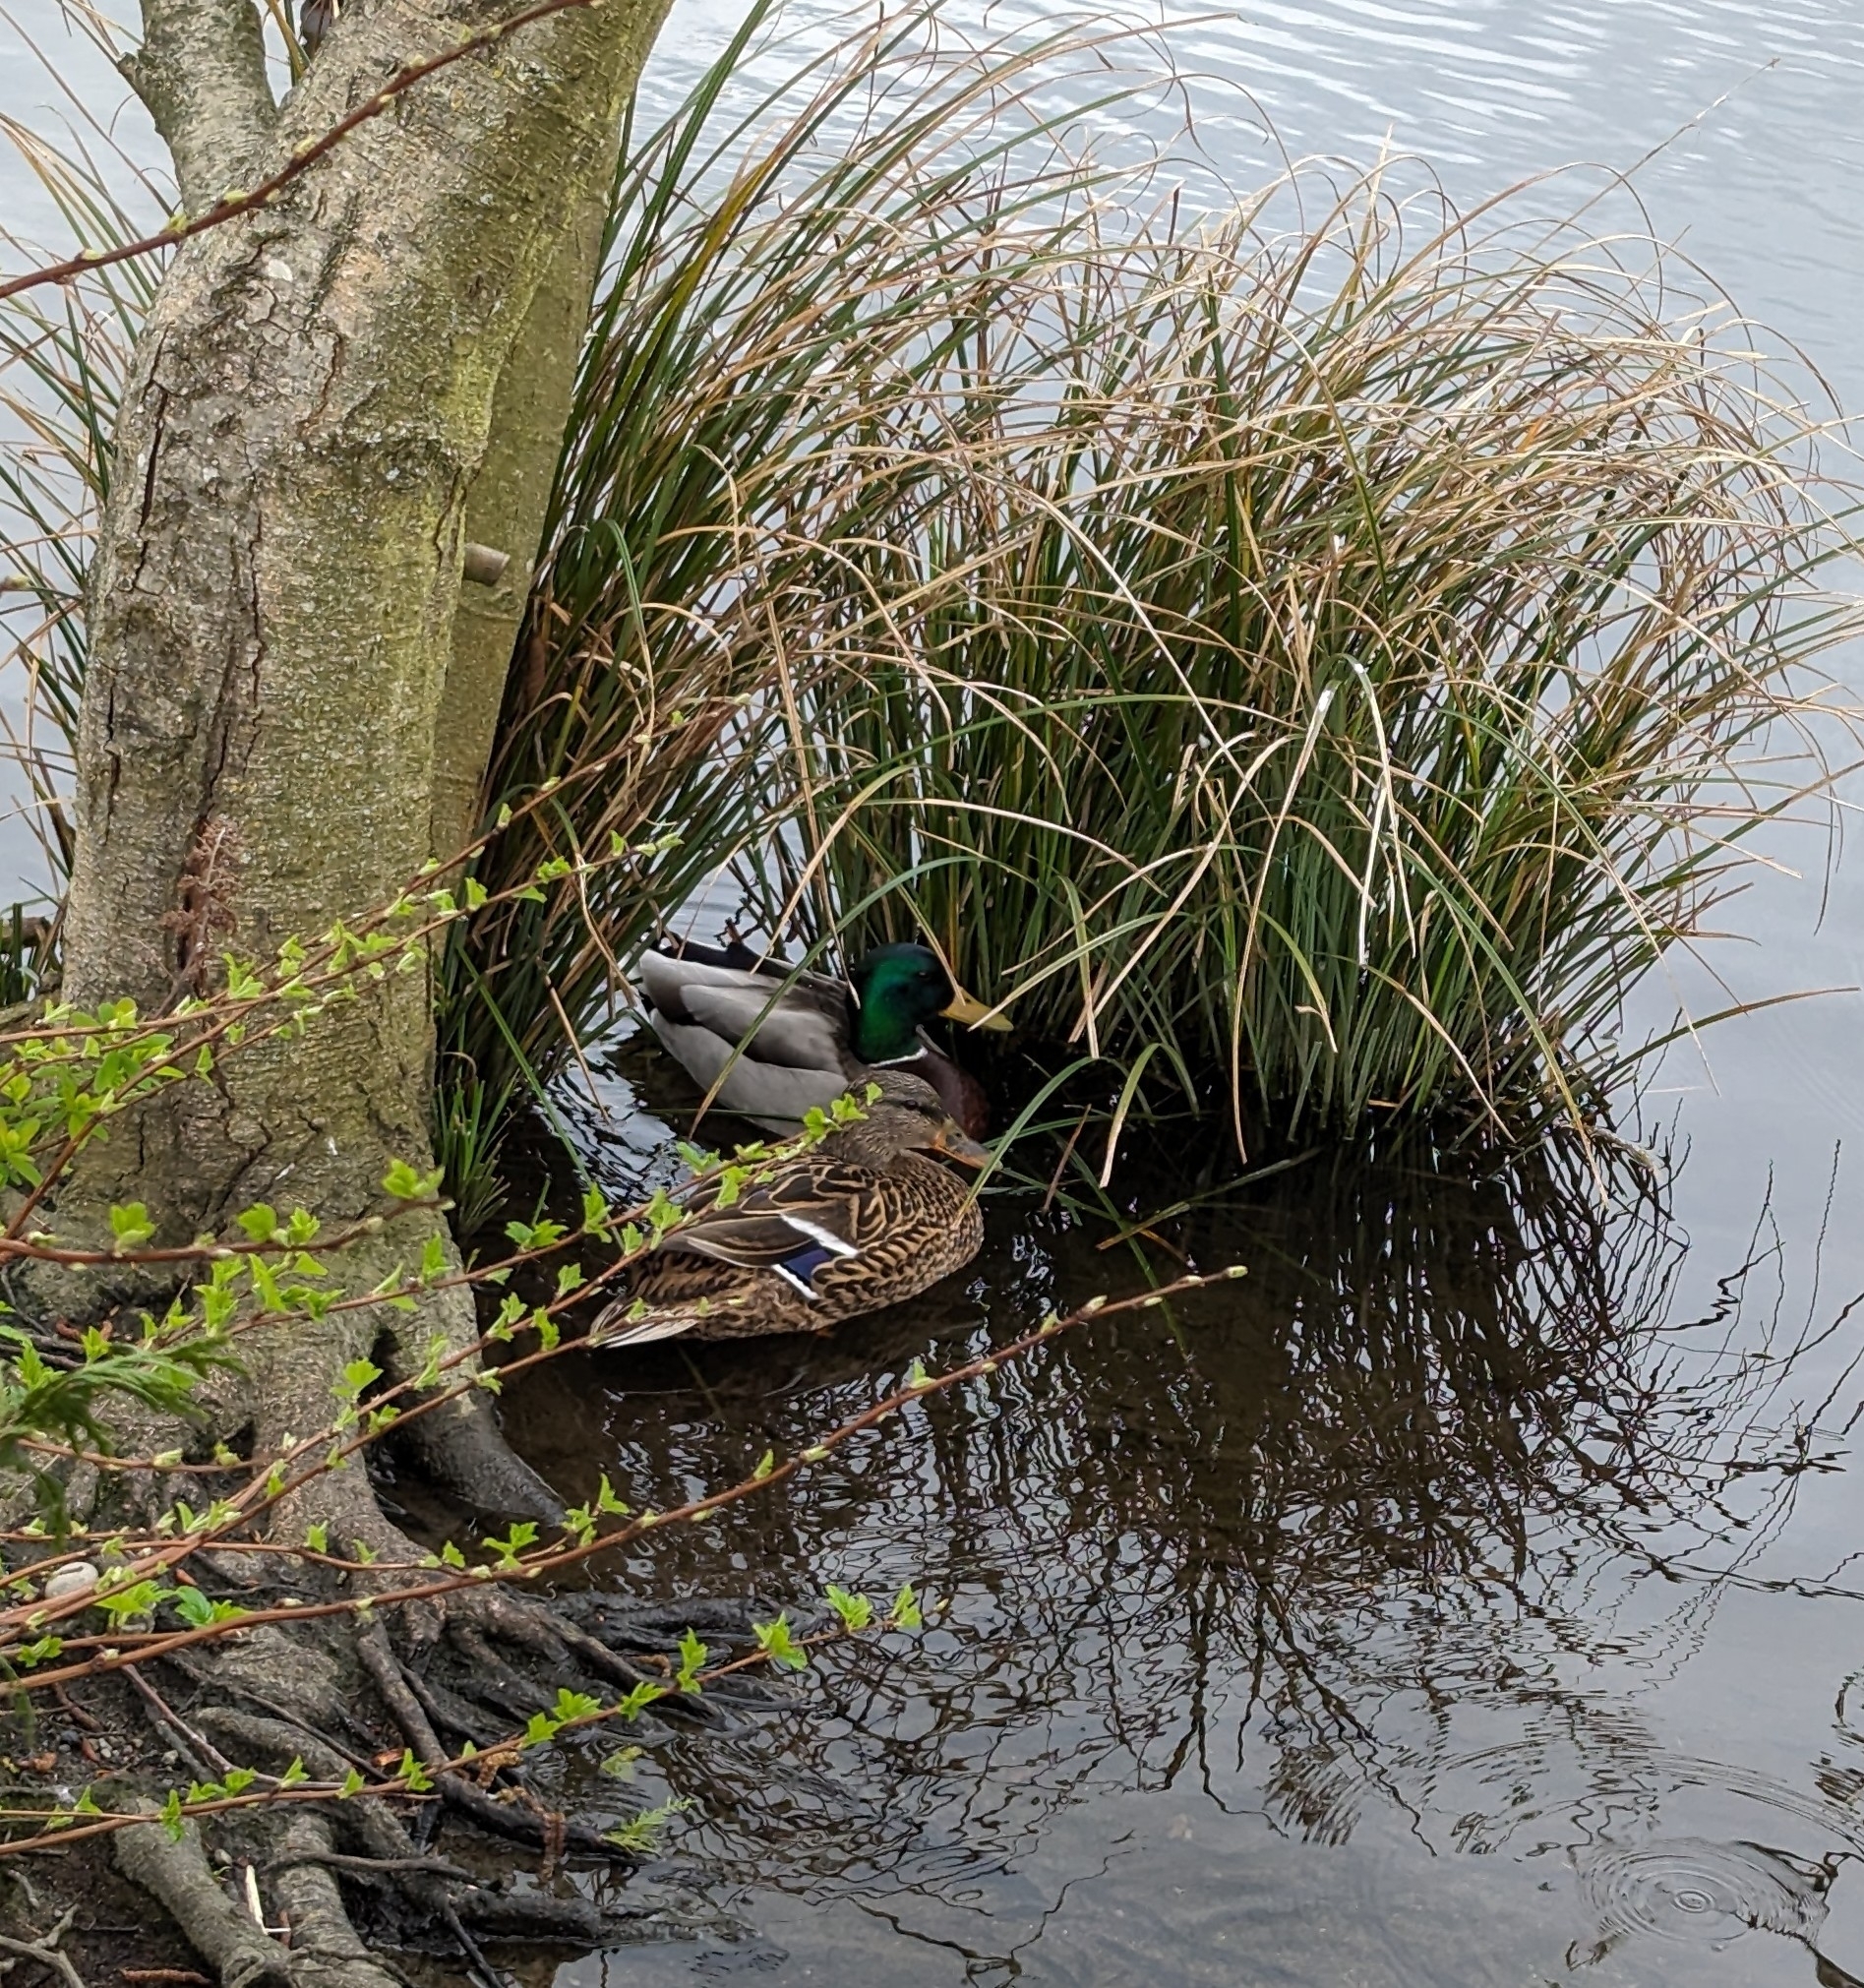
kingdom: Animalia
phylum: Chordata
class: Aves
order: Anseriformes
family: Anatidae
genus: Anas
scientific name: Anas platyrhynchos
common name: Mallard
